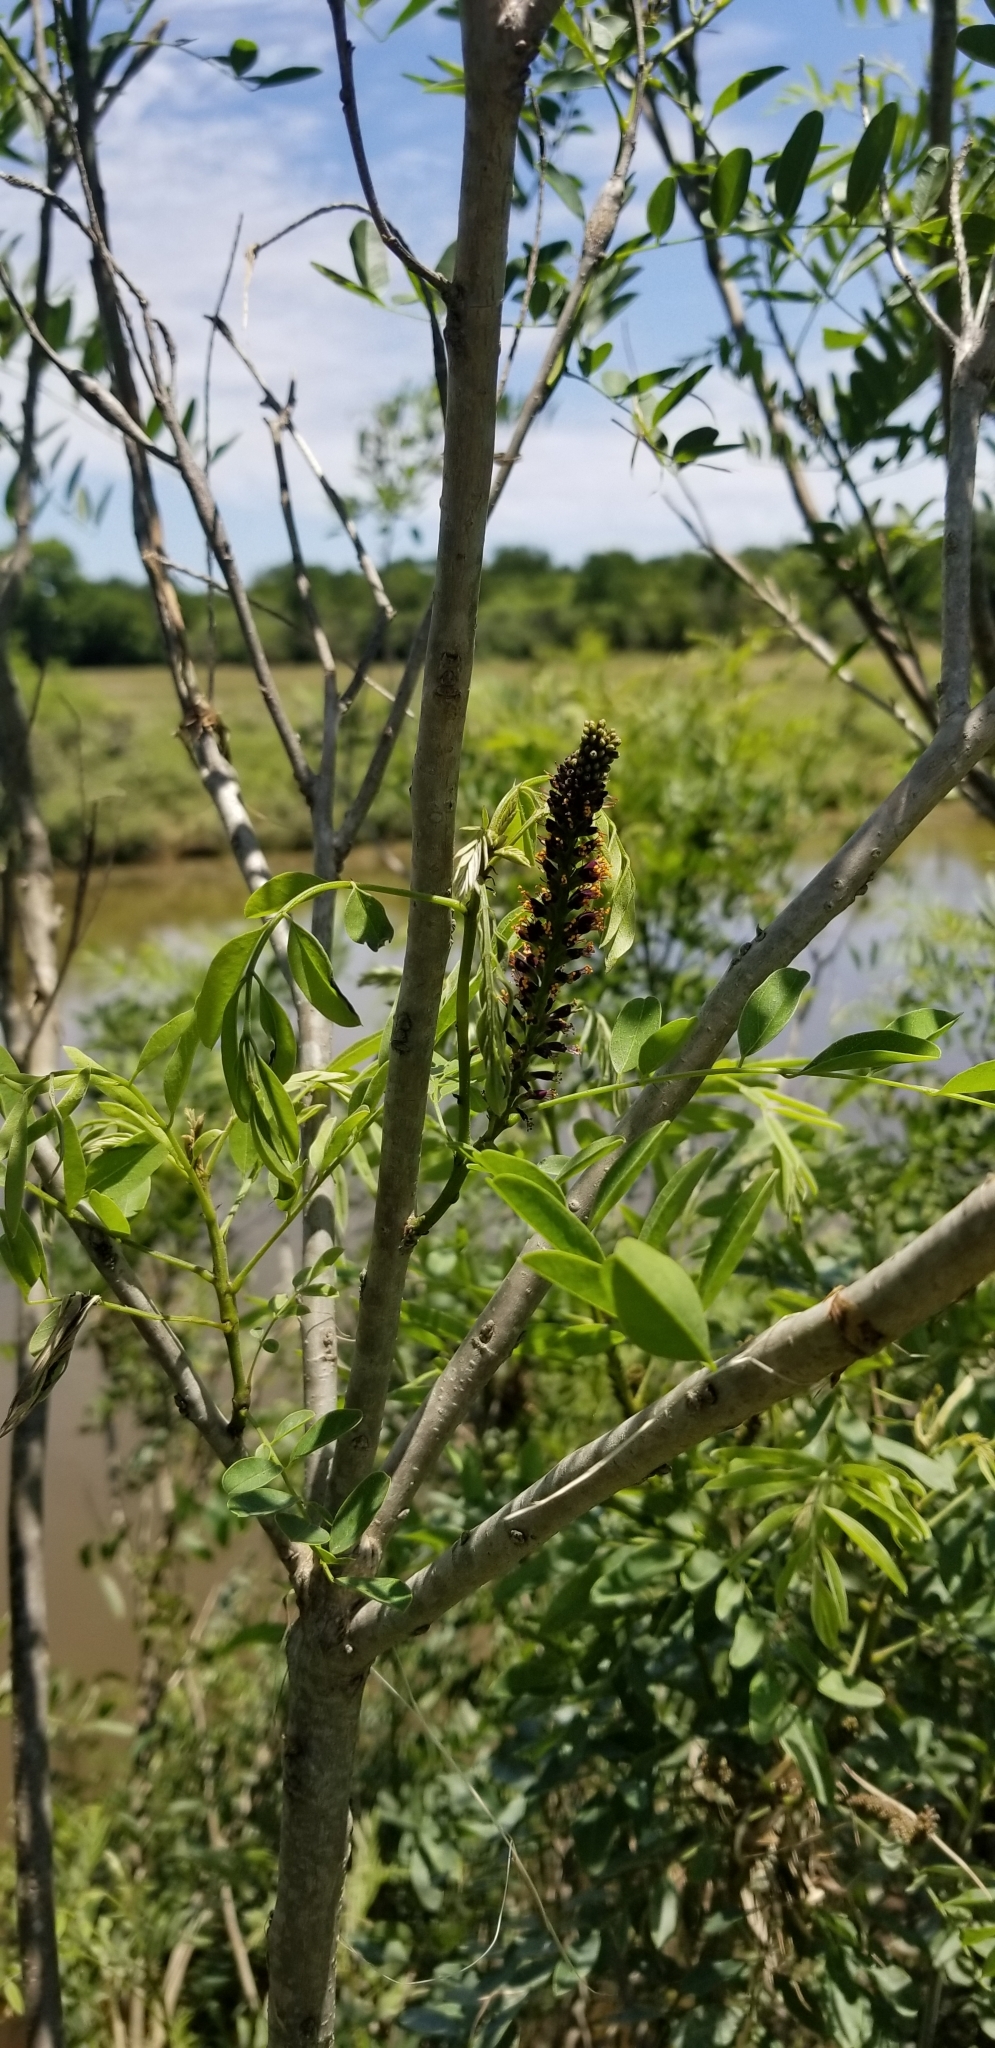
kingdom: Plantae
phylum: Tracheophyta
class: Magnoliopsida
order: Fabales
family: Fabaceae
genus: Amorpha
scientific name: Amorpha fruticosa
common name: False indigo
